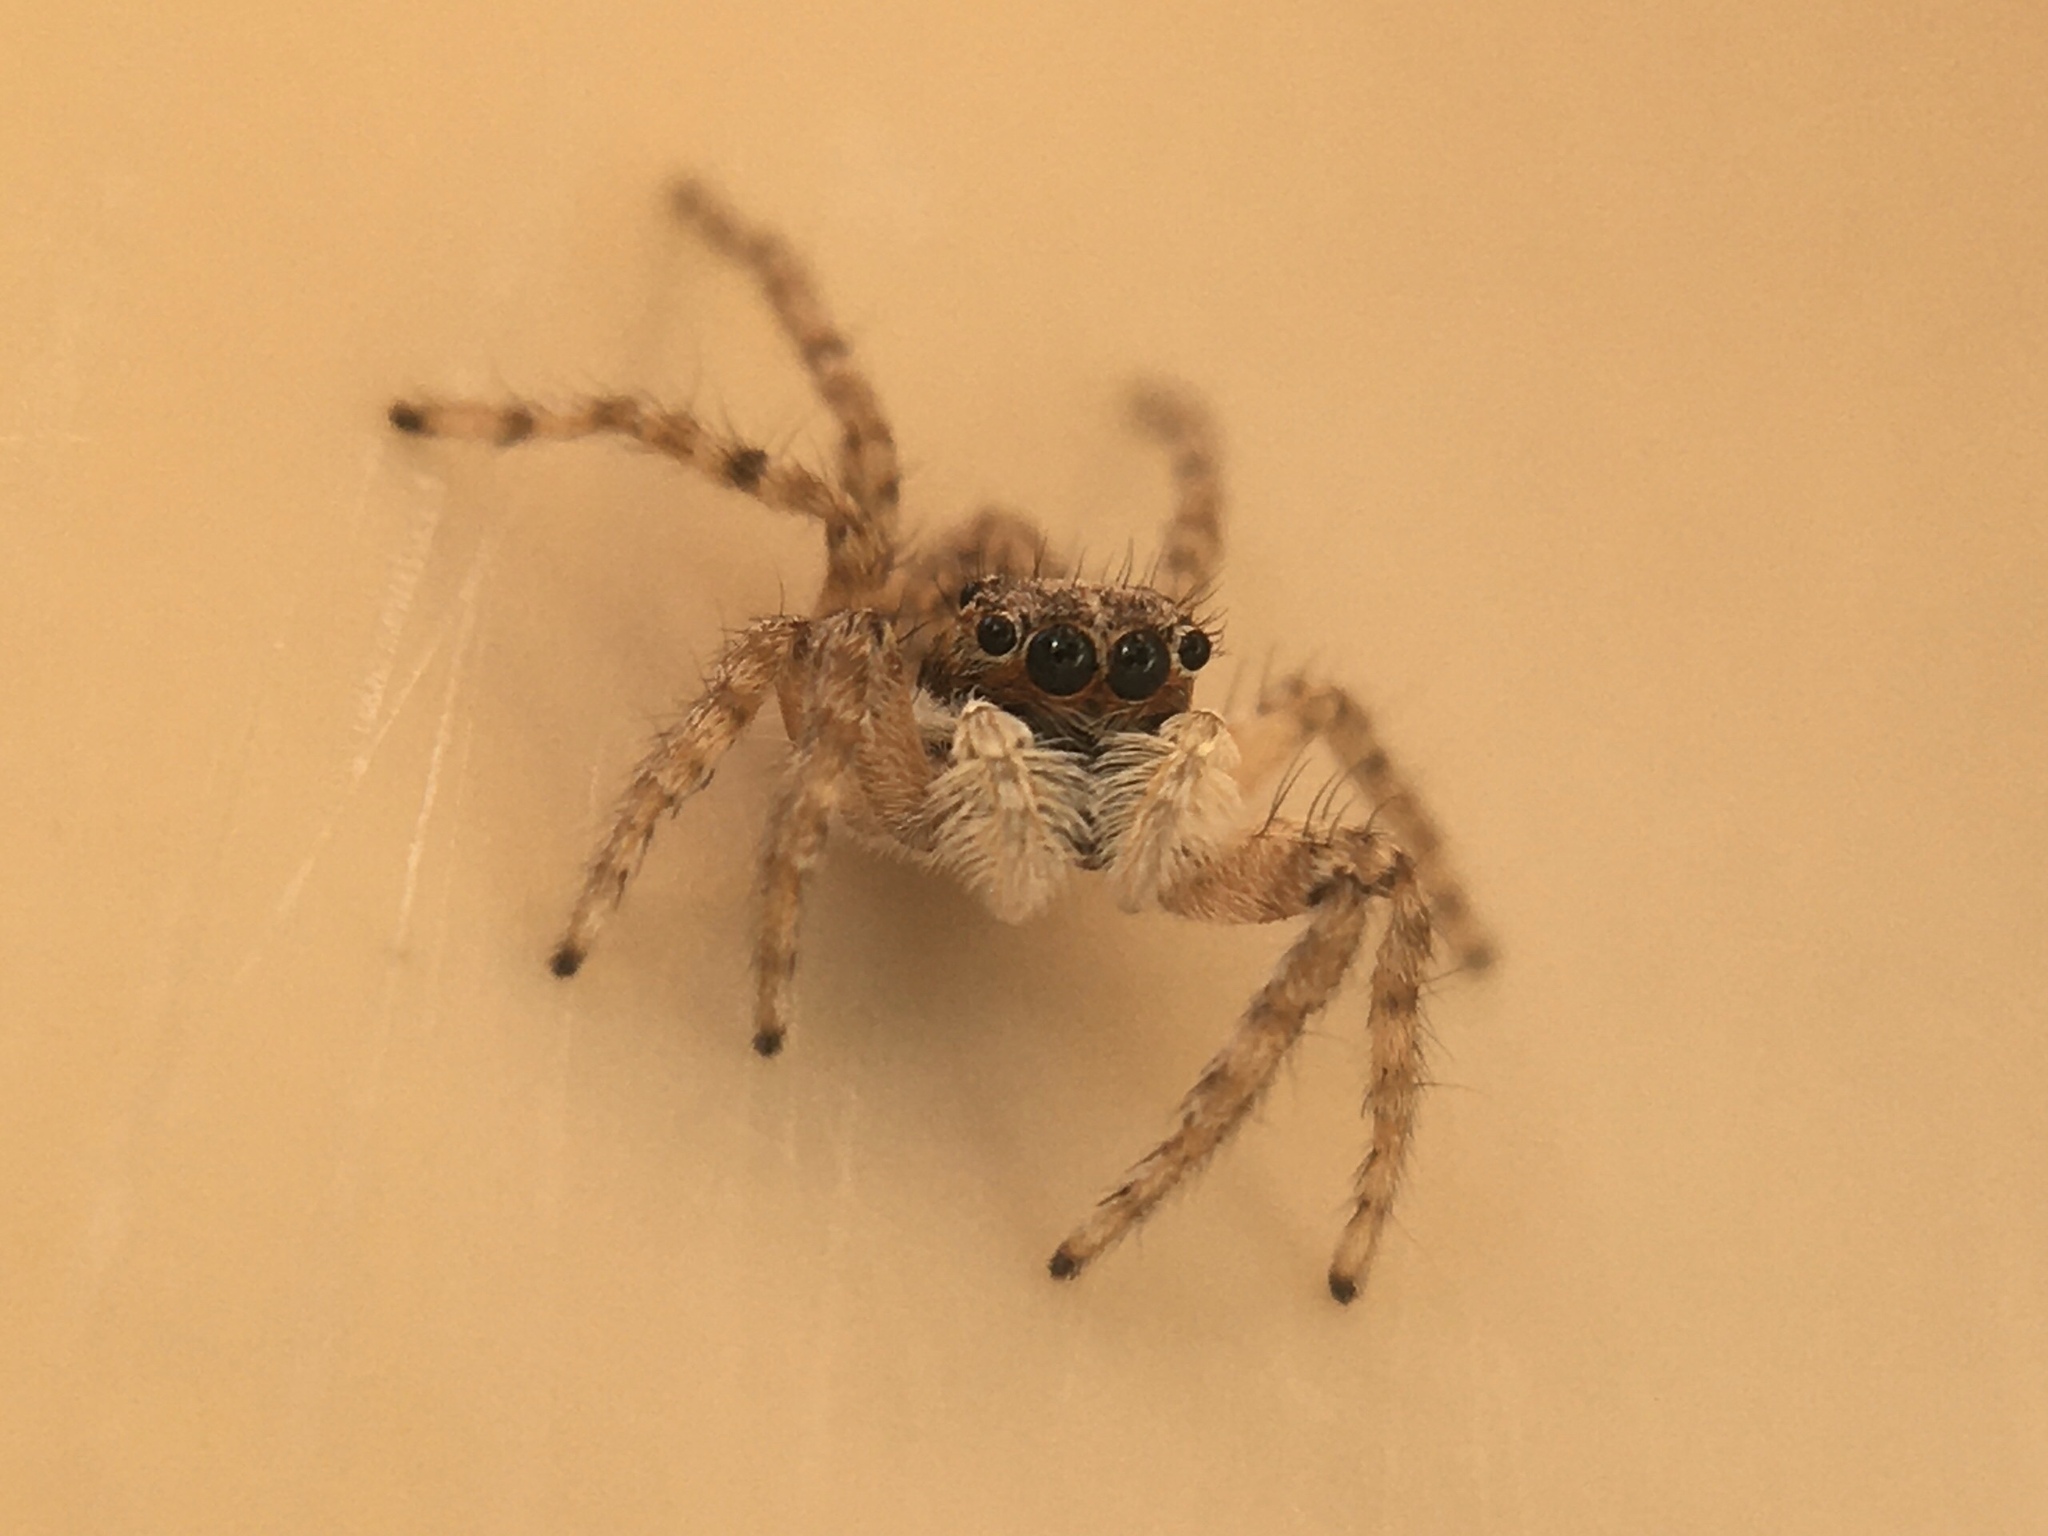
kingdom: Animalia
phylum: Arthropoda
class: Arachnida
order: Araneae
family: Salticidae
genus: Menemerus
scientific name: Menemerus semilimbatus
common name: Jumping spider
